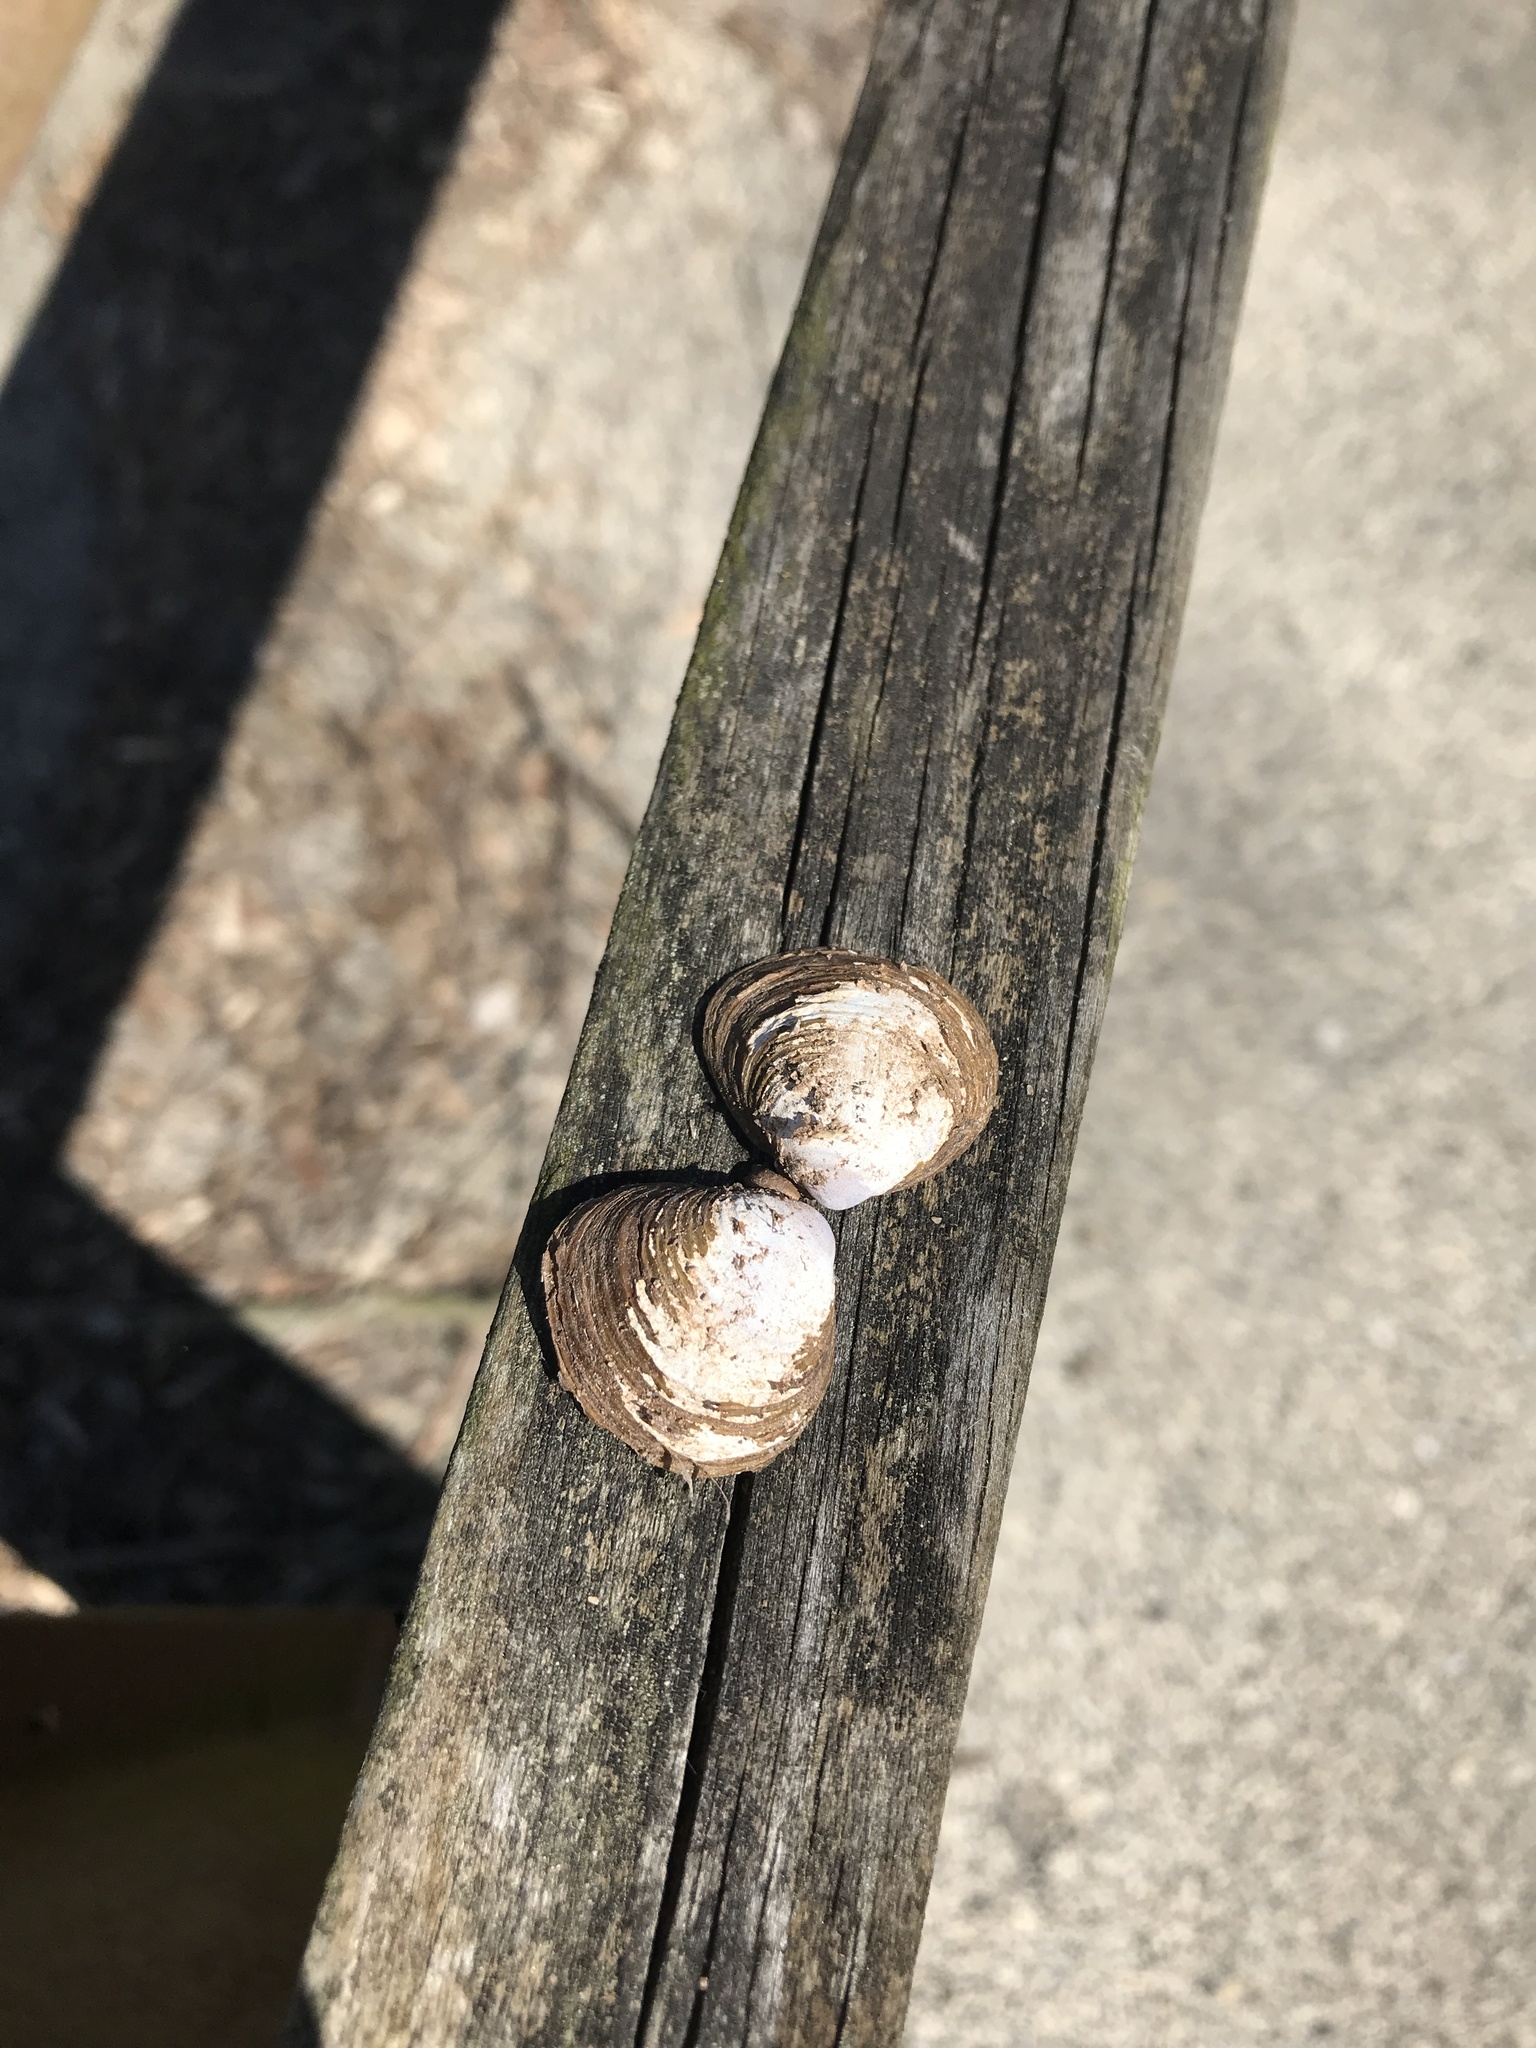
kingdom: Animalia
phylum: Mollusca
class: Bivalvia
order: Venerida
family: Cyrenidae
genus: Corbicula
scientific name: Corbicula fluminea
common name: Asian clam
